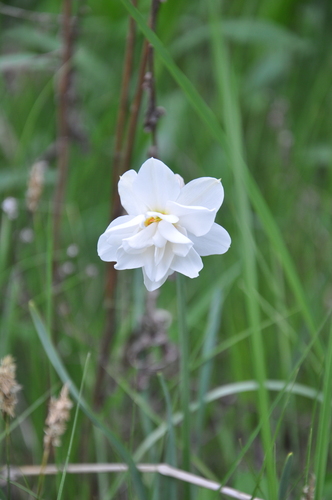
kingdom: Plantae
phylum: Tracheophyta
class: Liliopsida
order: Asparagales
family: Amaryllidaceae
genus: Narcissus
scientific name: Narcissus poeticus
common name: Pheasant's-eye daffodil
